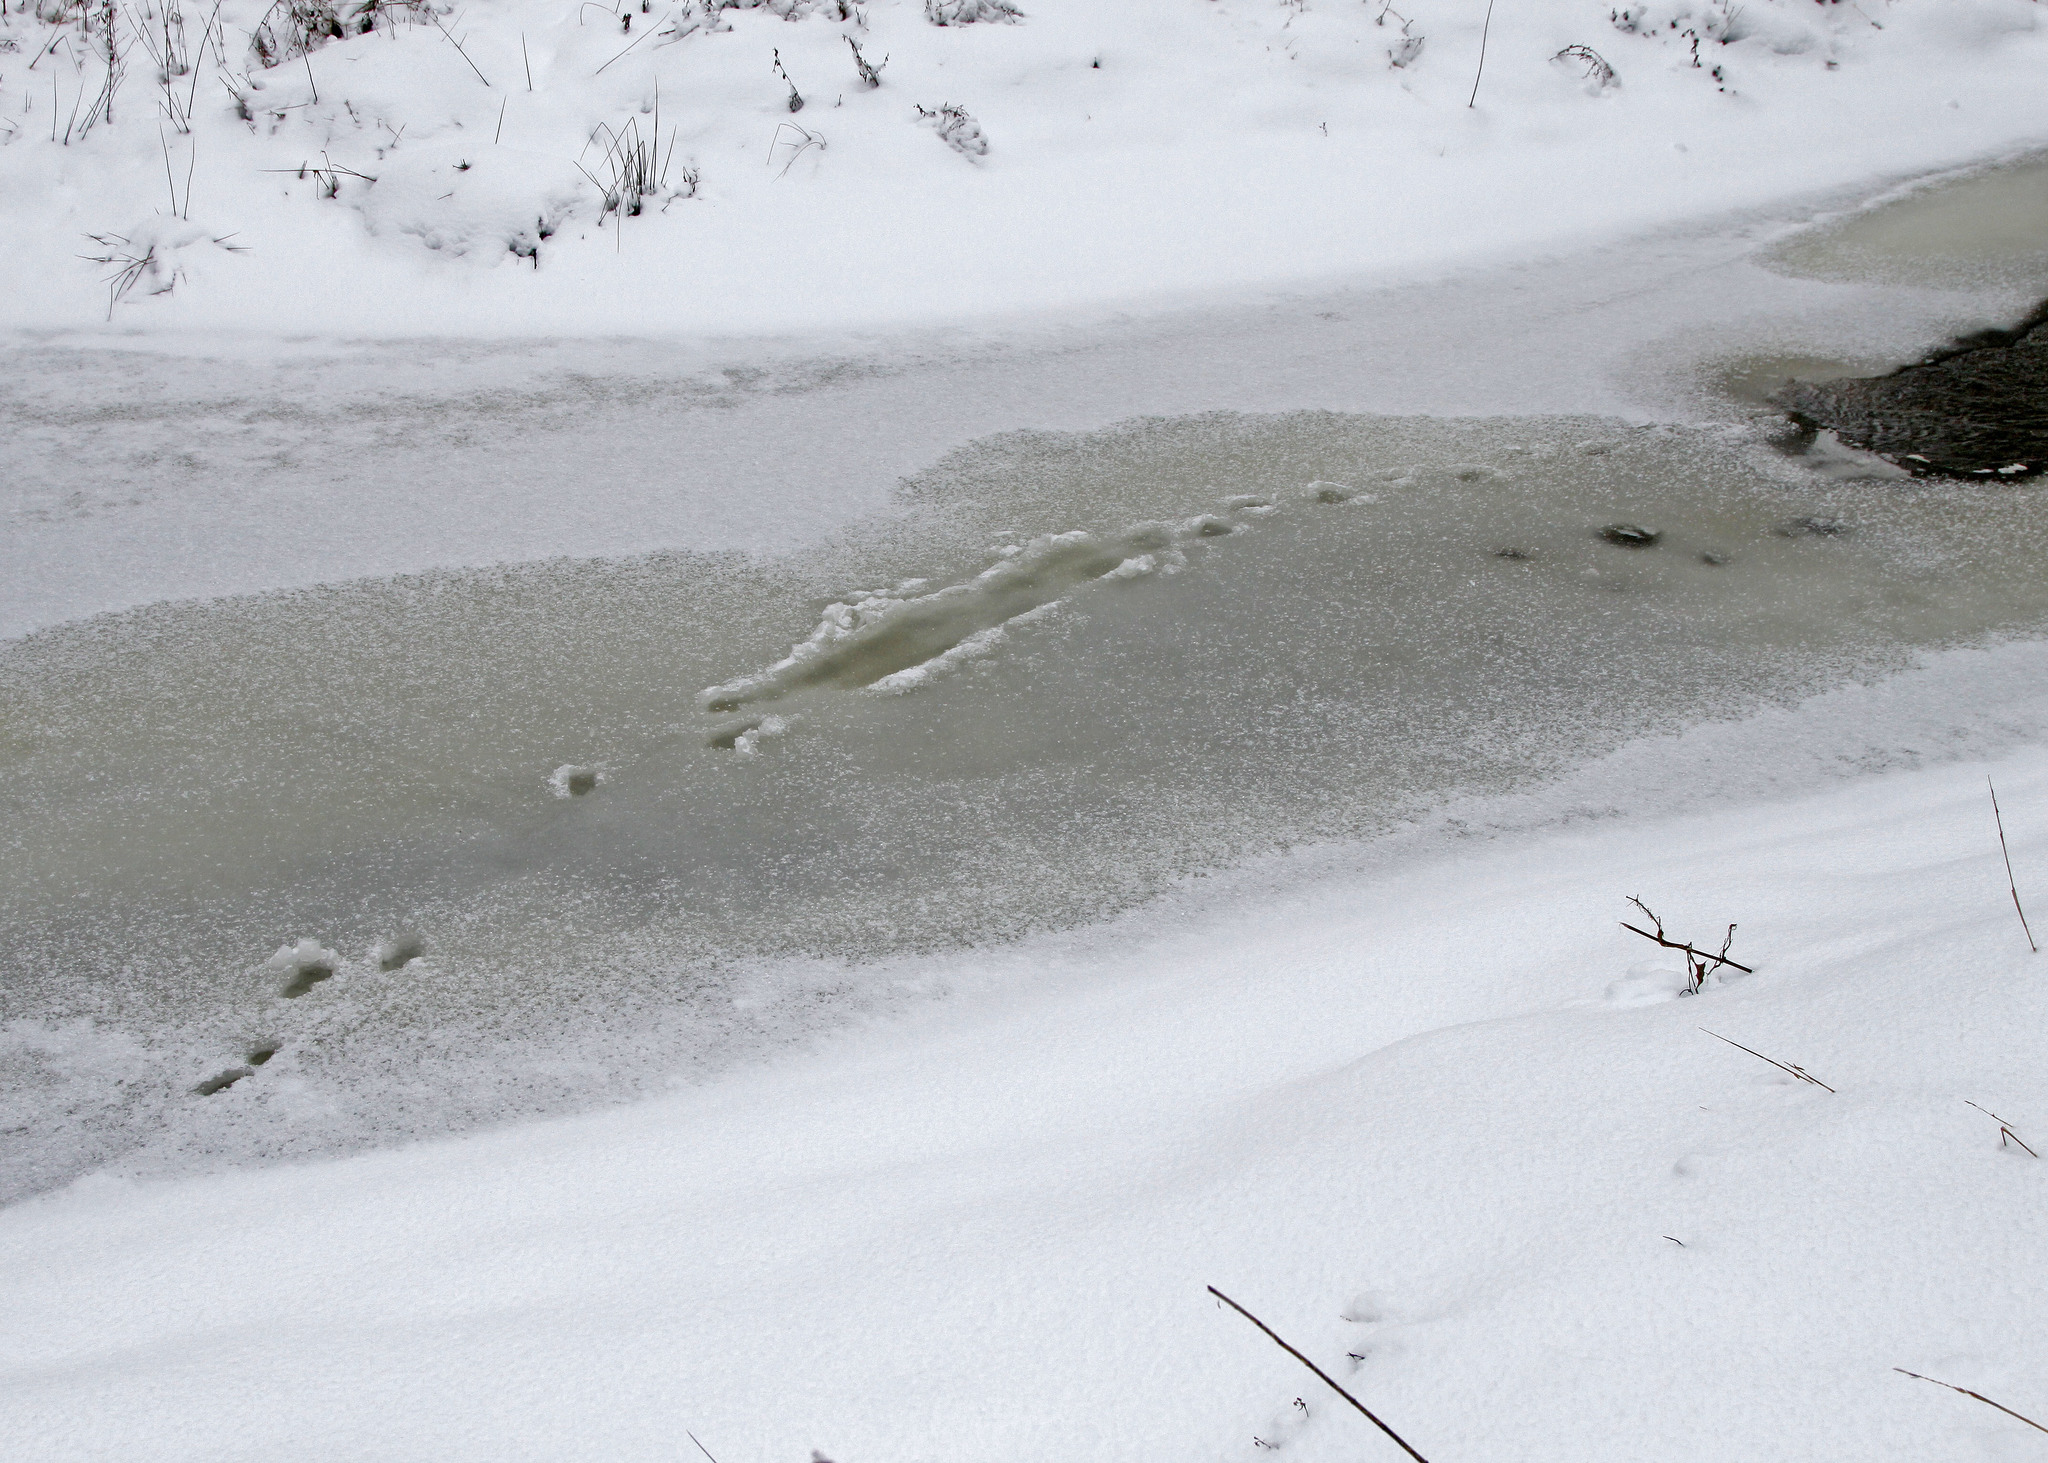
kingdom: Animalia
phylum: Chordata
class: Mammalia
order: Carnivora
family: Mustelidae
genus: Lontra
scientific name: Lontra canadensis
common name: North american river otter
